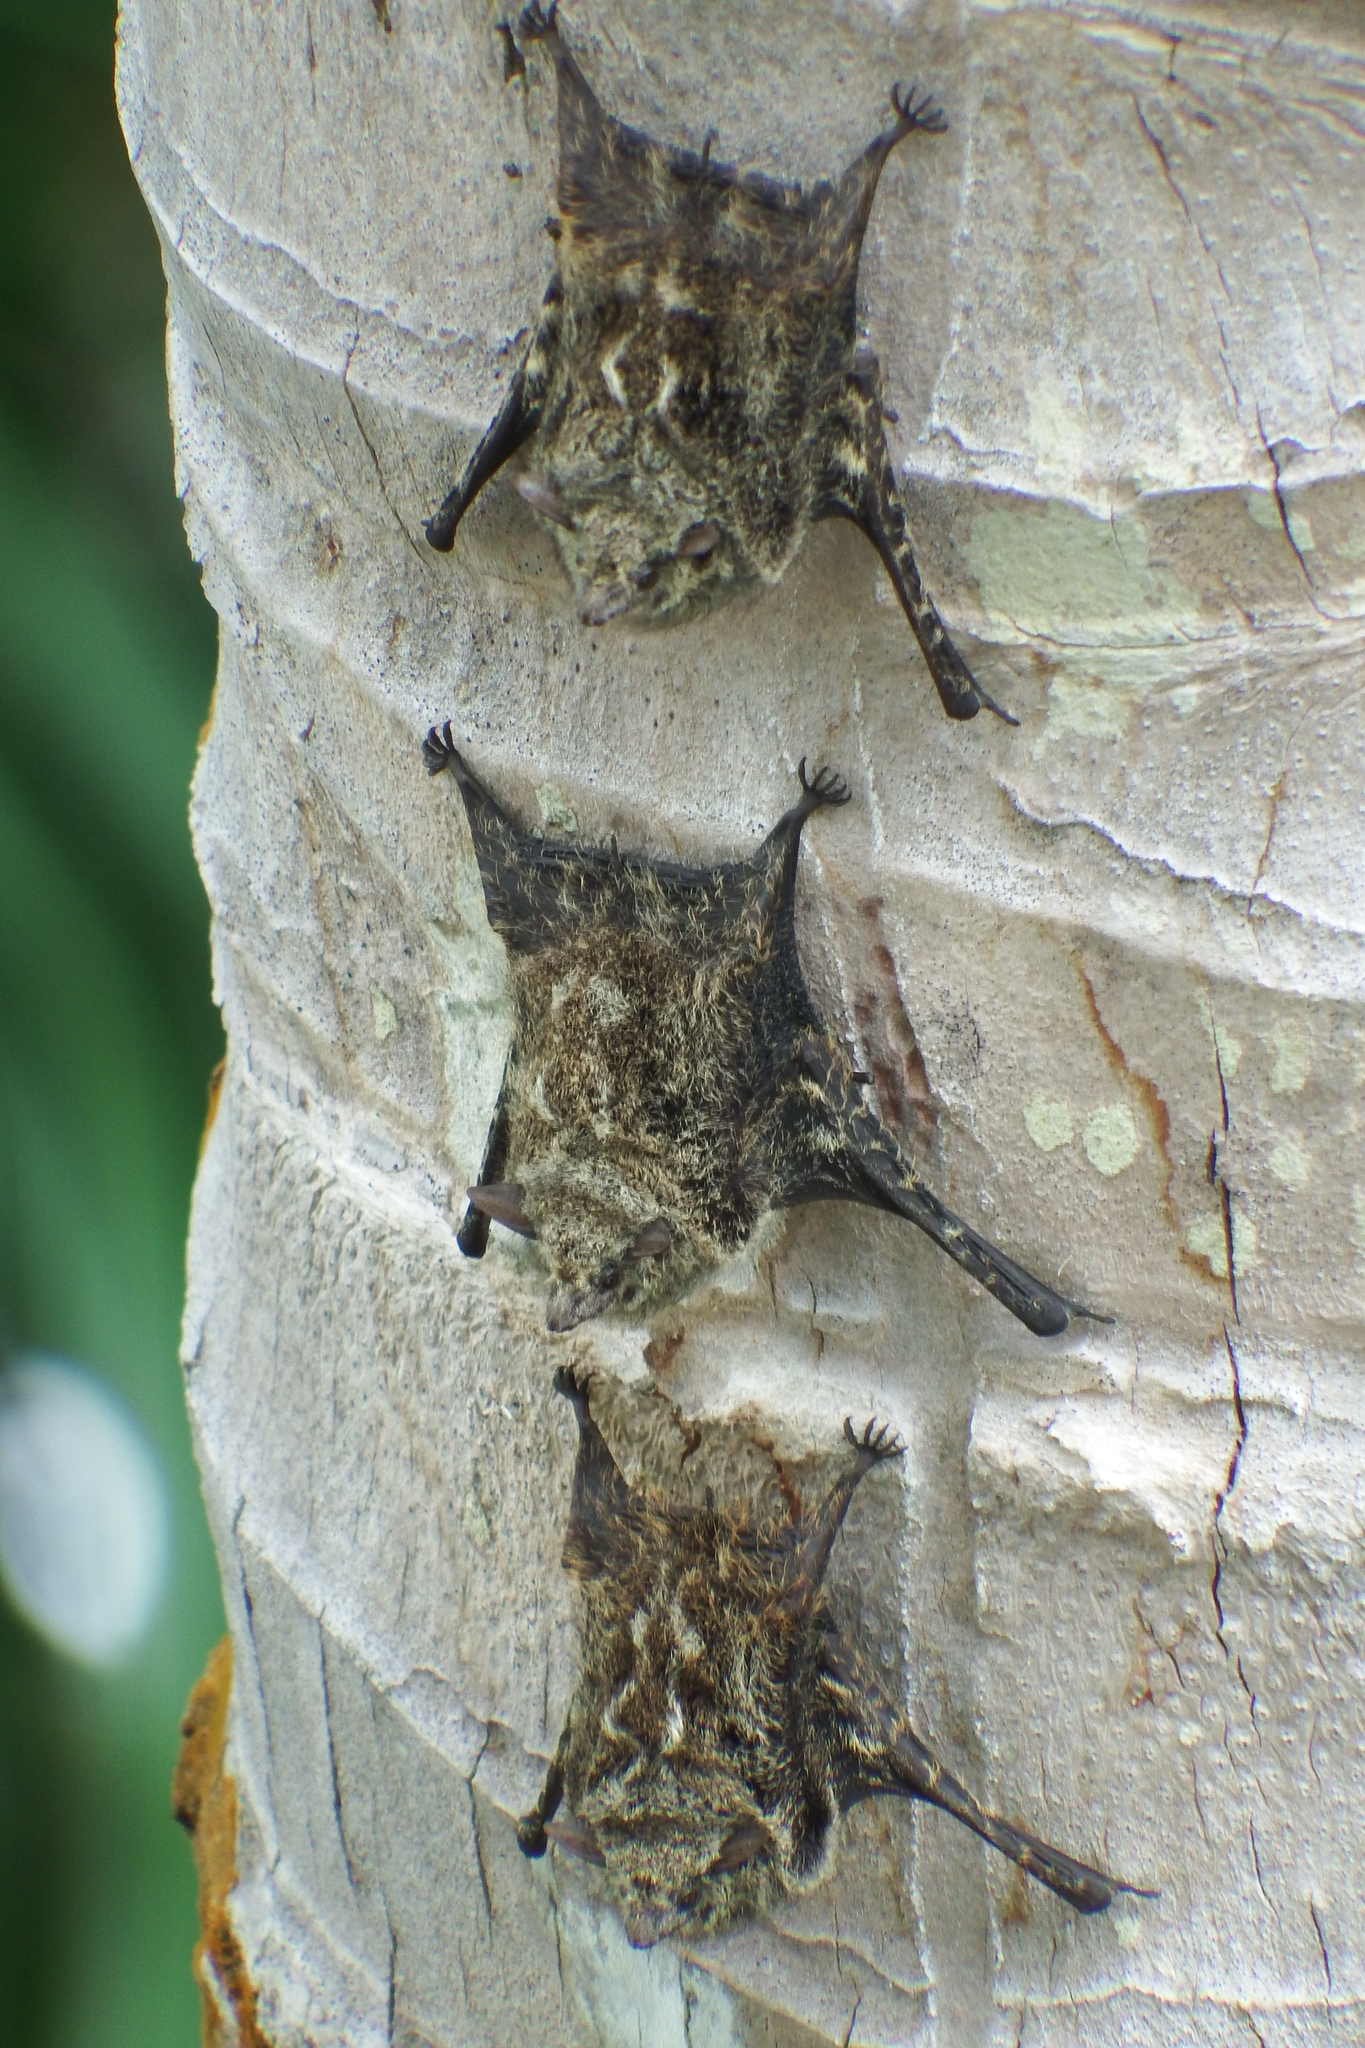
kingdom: Animalia
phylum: Chordata
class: Mammalia
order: Chiroptera
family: Emballonuridae
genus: Rhynchonycteris
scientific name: Rhynchonycteris naso
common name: Proboscis bat
